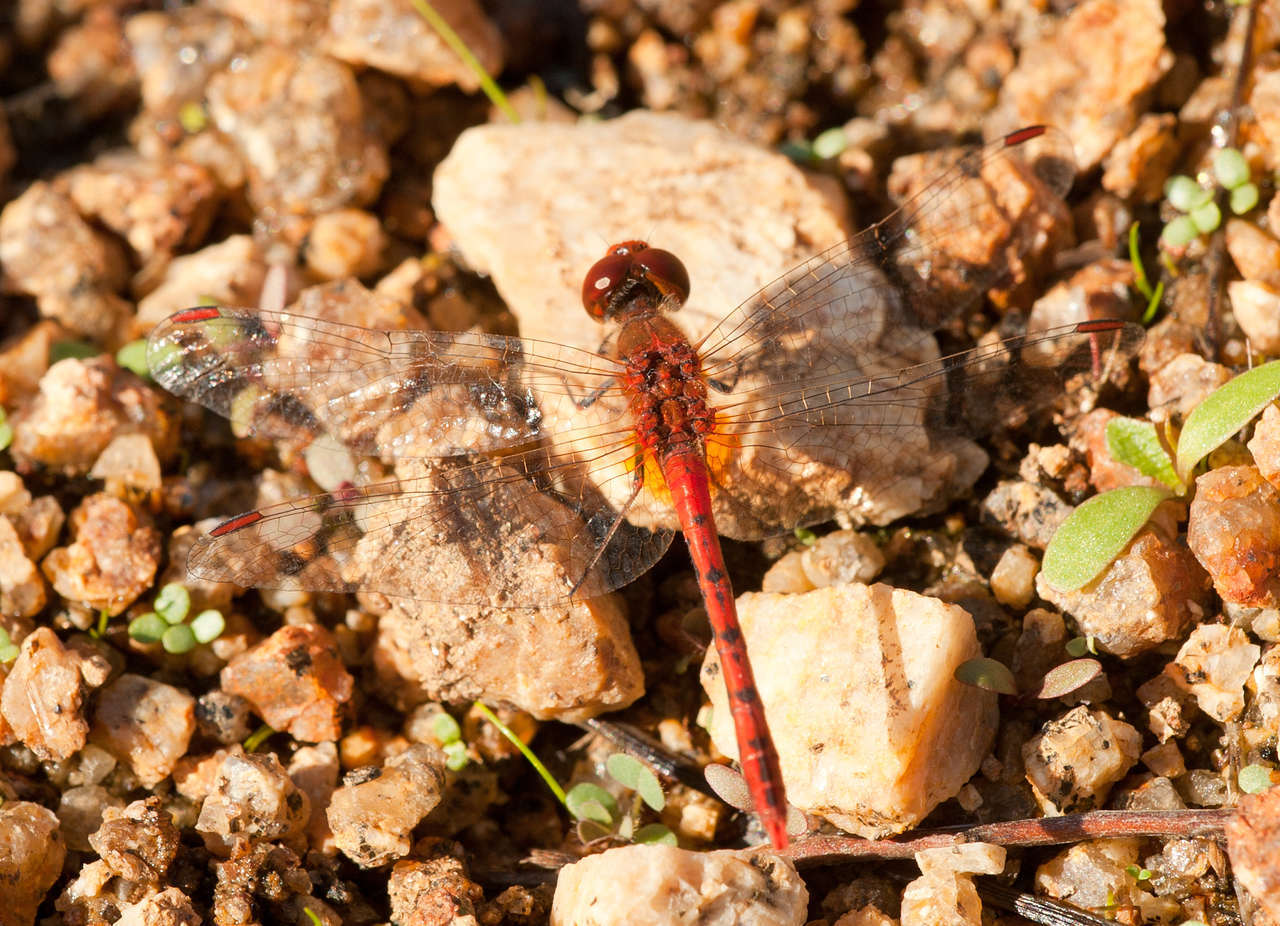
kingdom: Animalia
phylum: Arthropoda
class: Insecta
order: Odonata
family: Libellulidae
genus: Diplacodes
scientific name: Diplacodes bipunctata
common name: Red percher dragonfly
